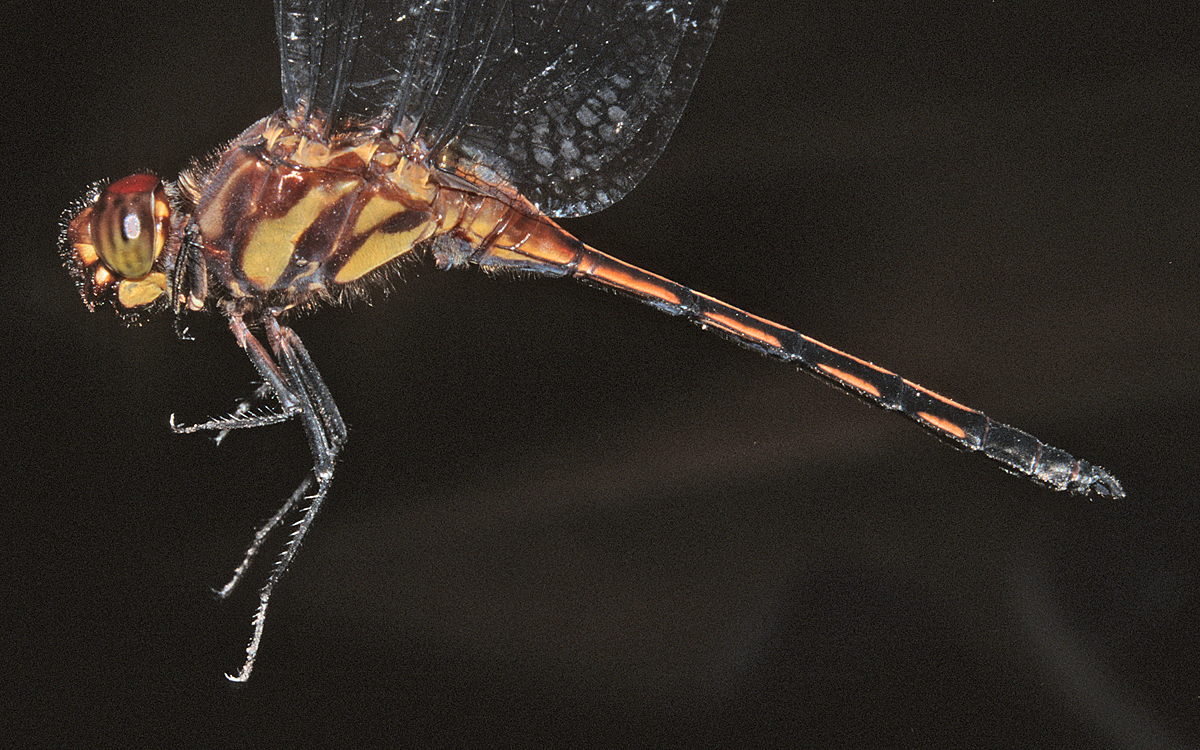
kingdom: Animalia
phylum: Arthropoda
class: Insecta
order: Odonata
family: Libellulidae
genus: Orthemis
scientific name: Orthemis cinnamomea
